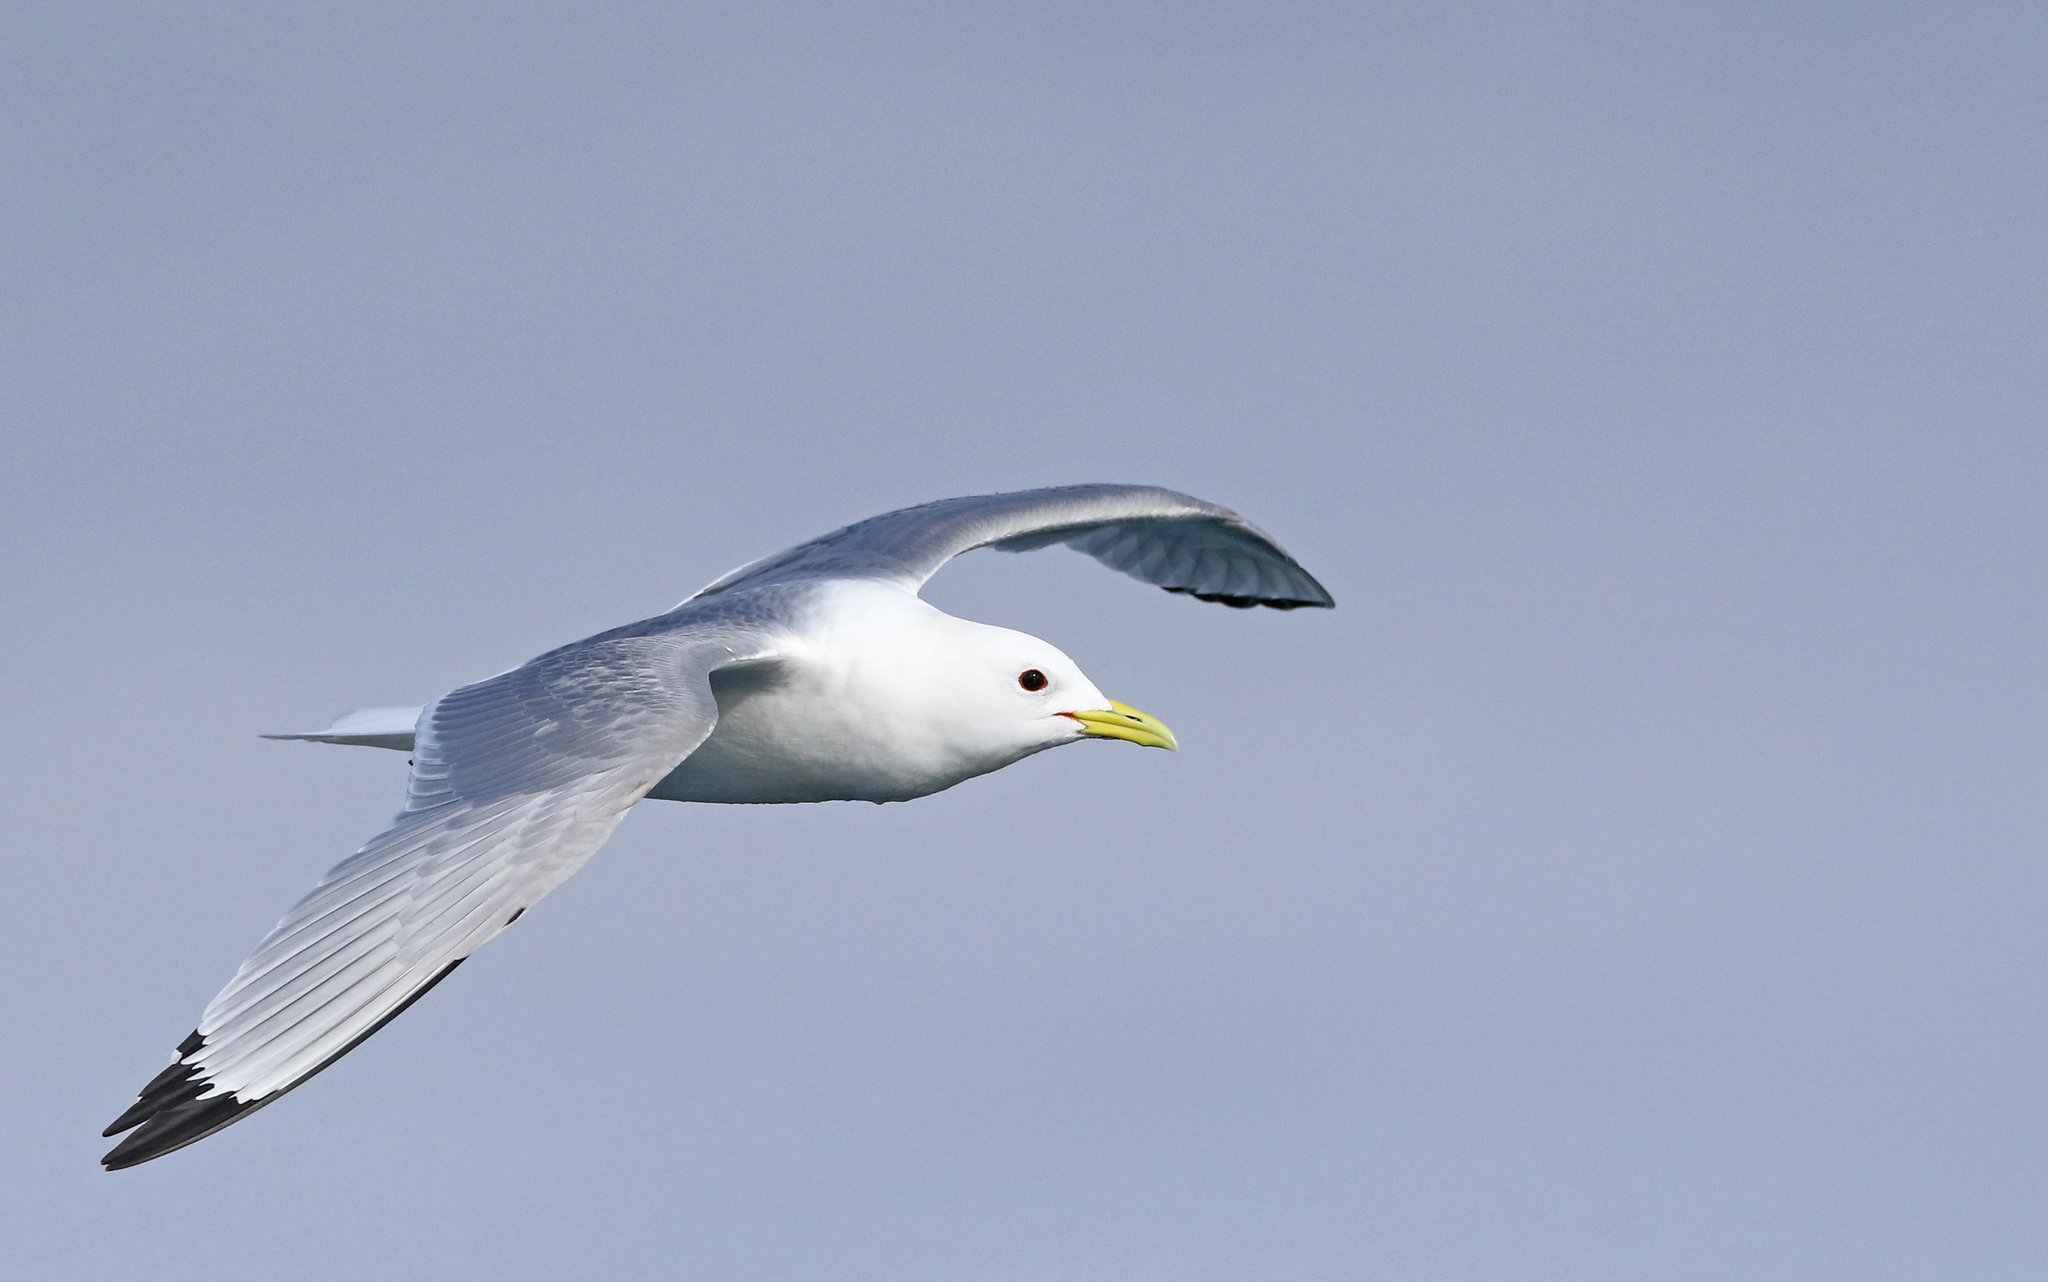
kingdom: Animalia
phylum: Chordata
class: Aves
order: Charadriiformes
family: Laridae
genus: Rissa
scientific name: Rissa tridactyla
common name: Black-legged kittiwake
